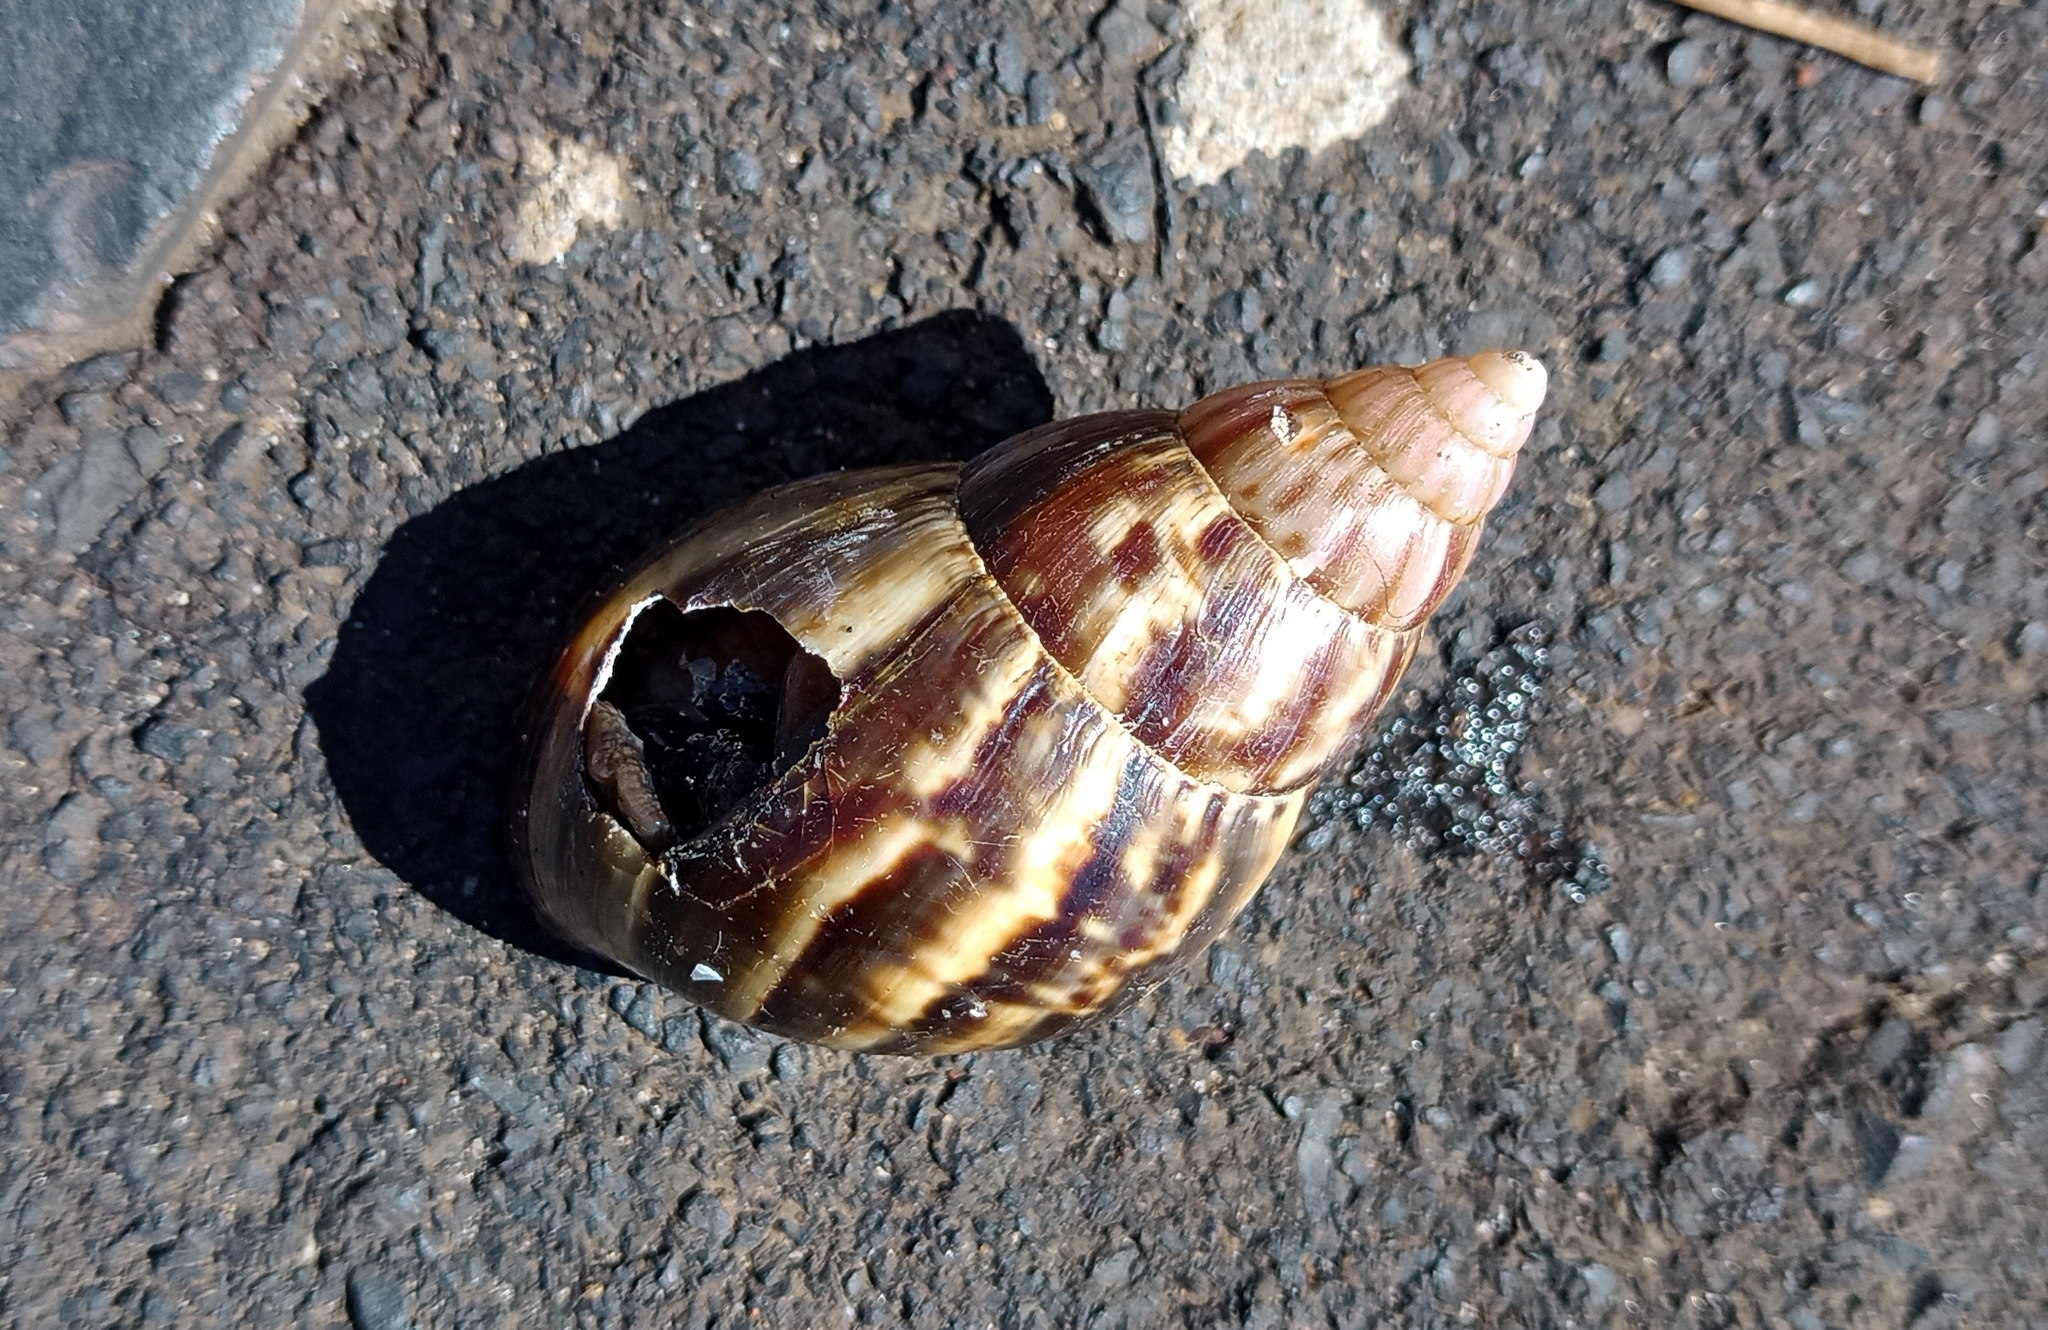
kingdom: Animalia
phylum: Mollusca
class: Gastropoda
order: Stylommatophora
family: Achatinidae
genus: Lissachatina
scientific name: Lissachatina fulica
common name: Giant african snail
